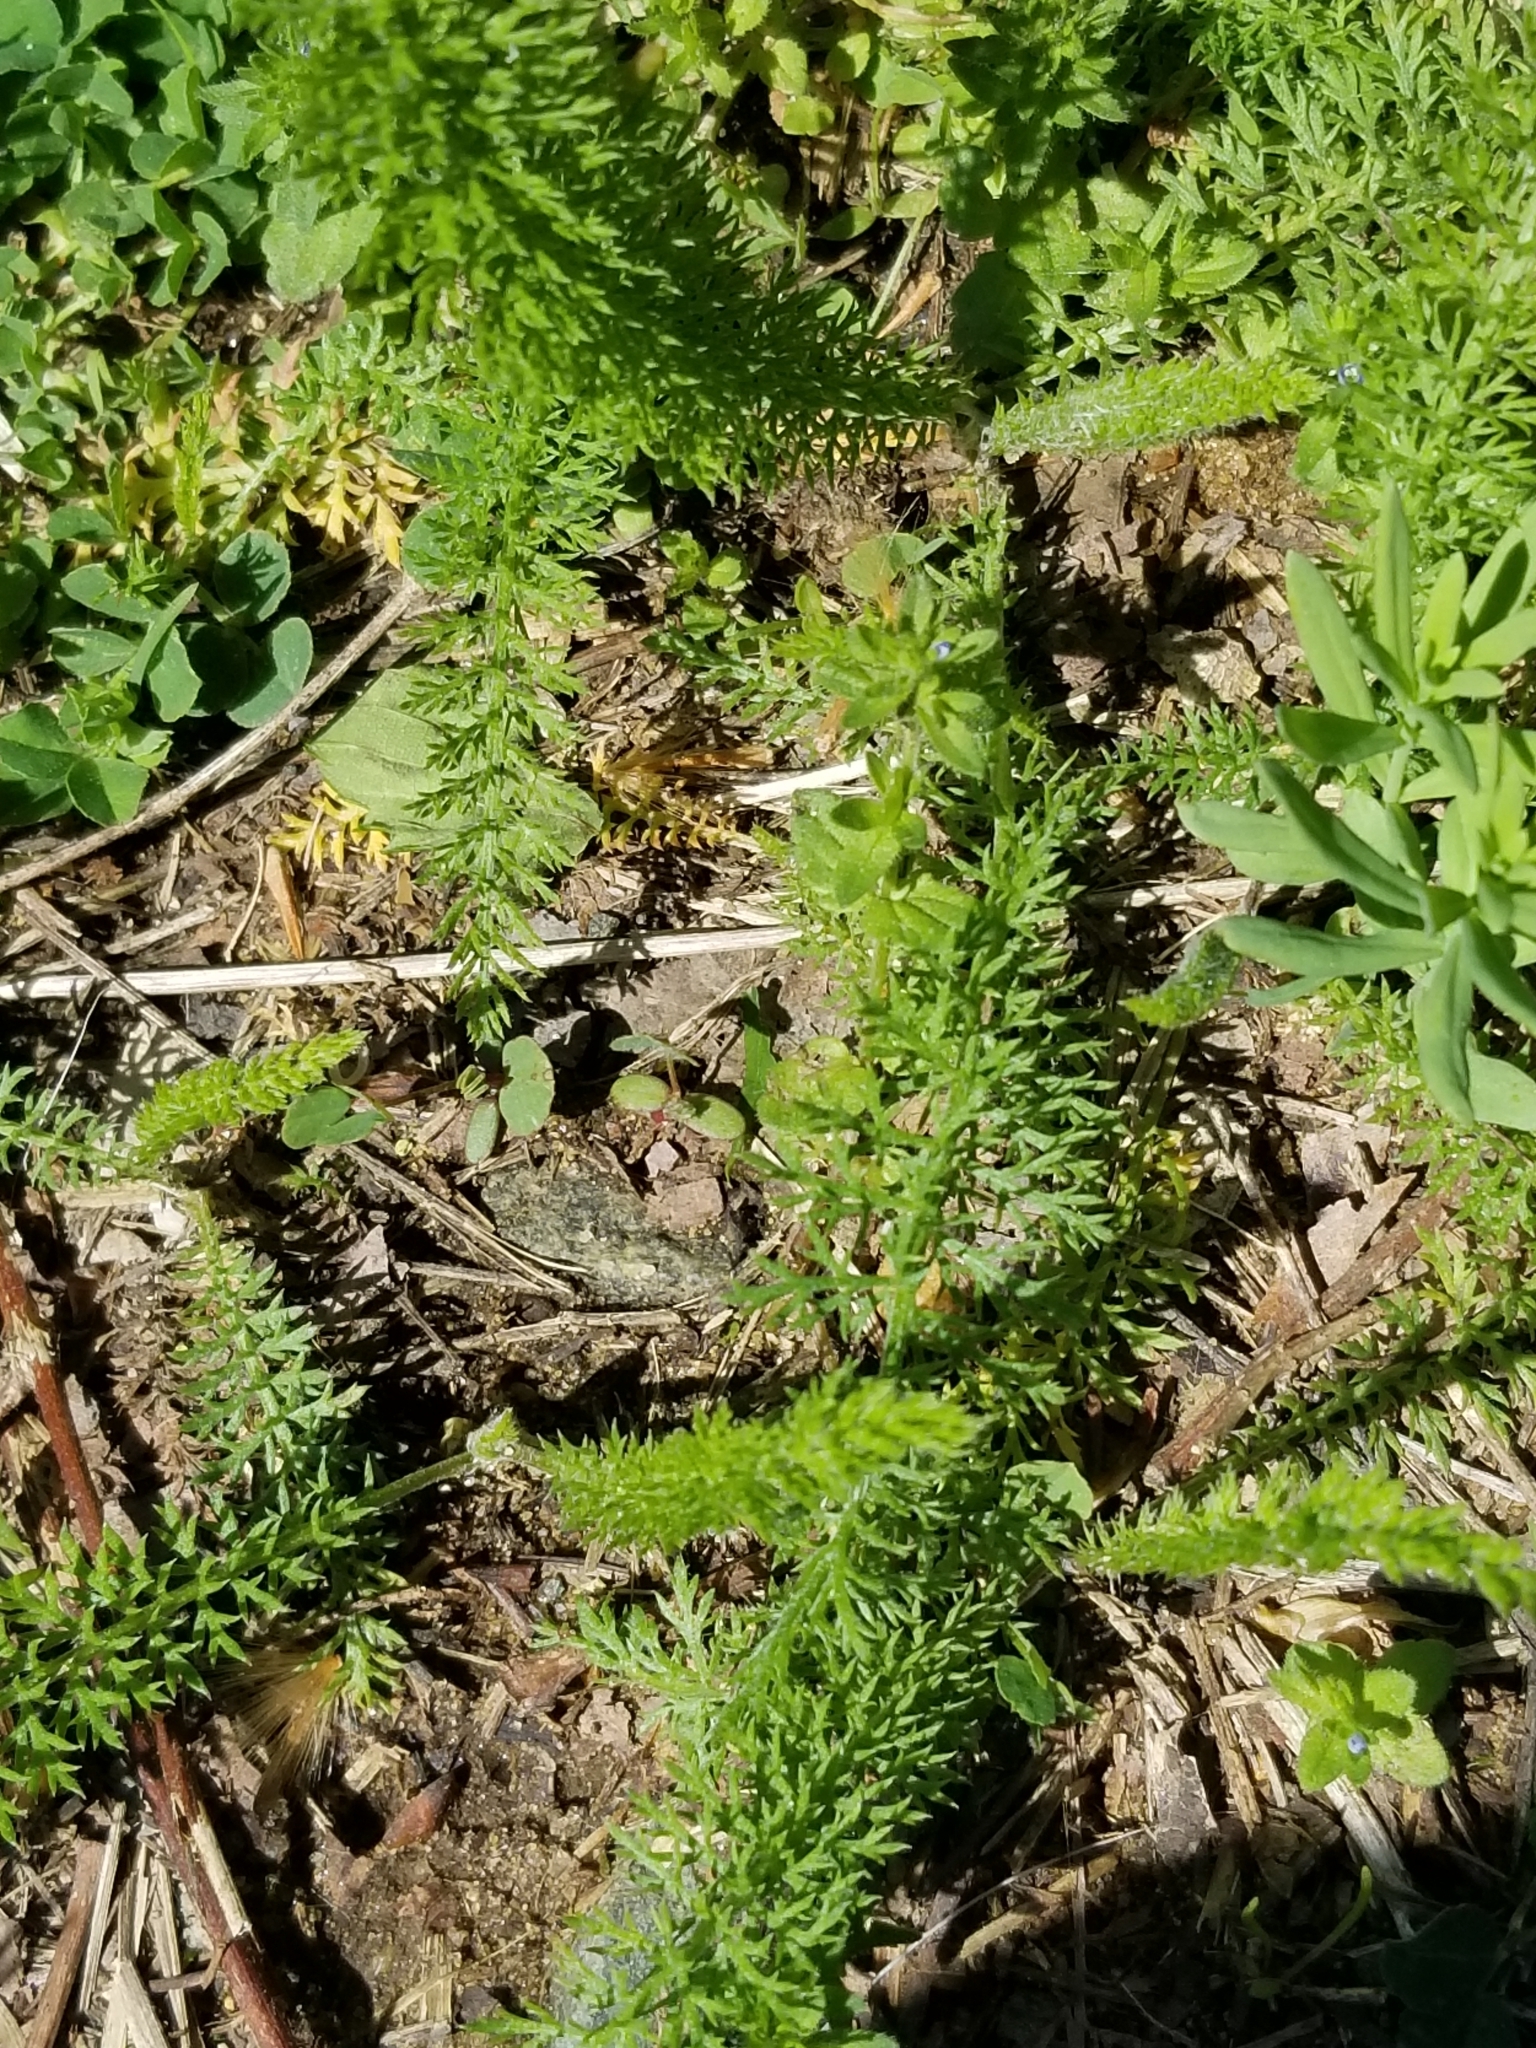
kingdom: Plantae
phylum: Tracheophyta
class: Magnoliopsida
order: Asterales
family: Asteraceae
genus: Achillea
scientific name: Achillea millefolium
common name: Yarrow
